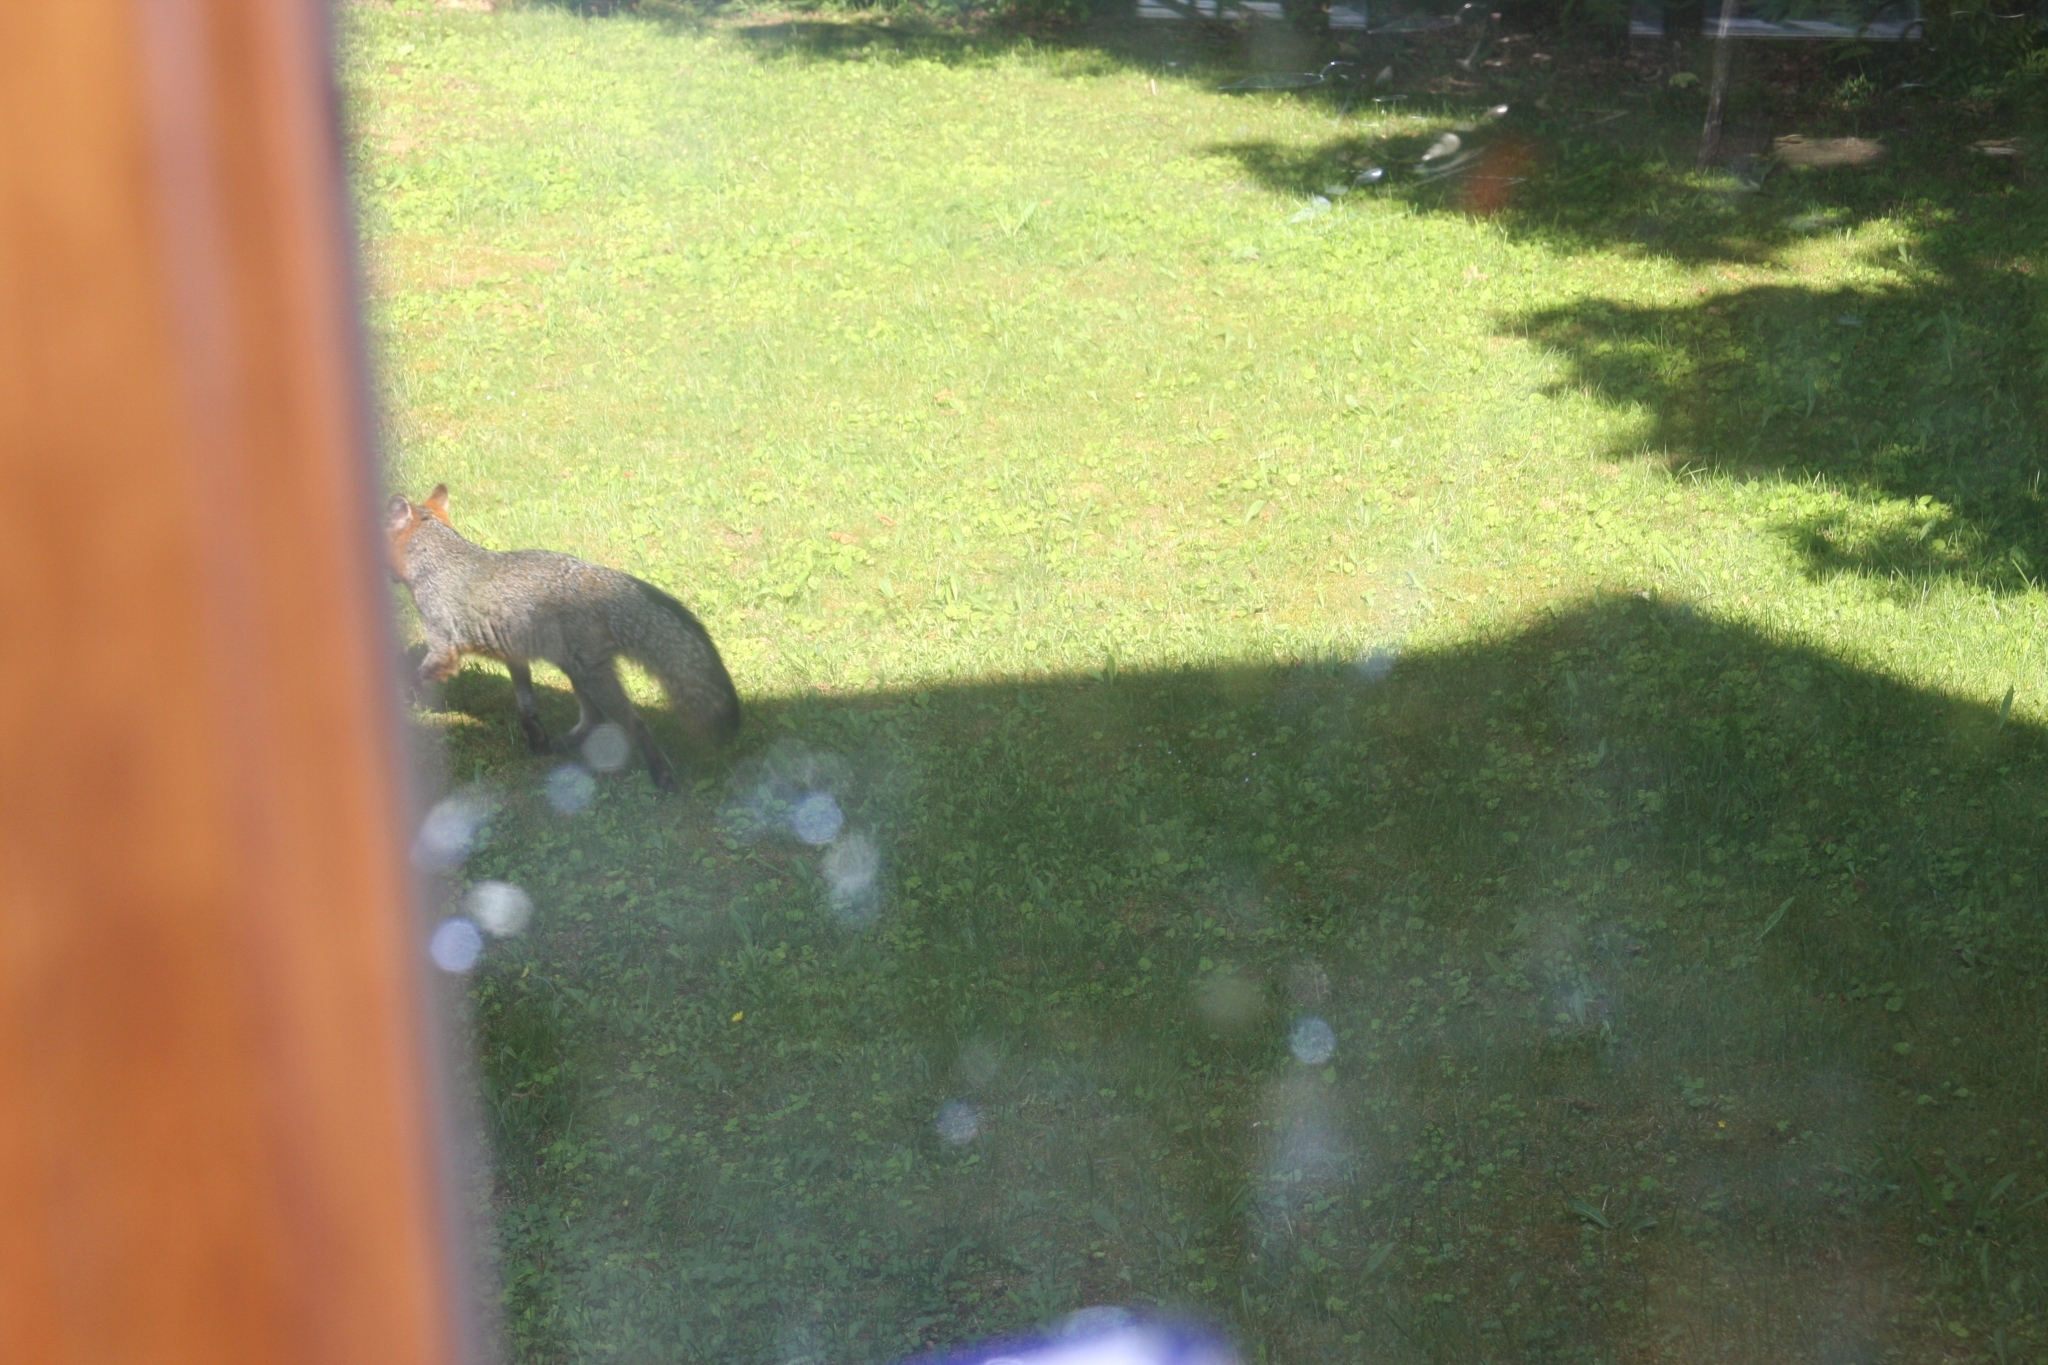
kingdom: Animalia
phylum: Chordata
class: Mammalia
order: Carnivora
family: Canidae
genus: Urocyon
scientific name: Urocyon cinereoargenteus
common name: Gray fox
